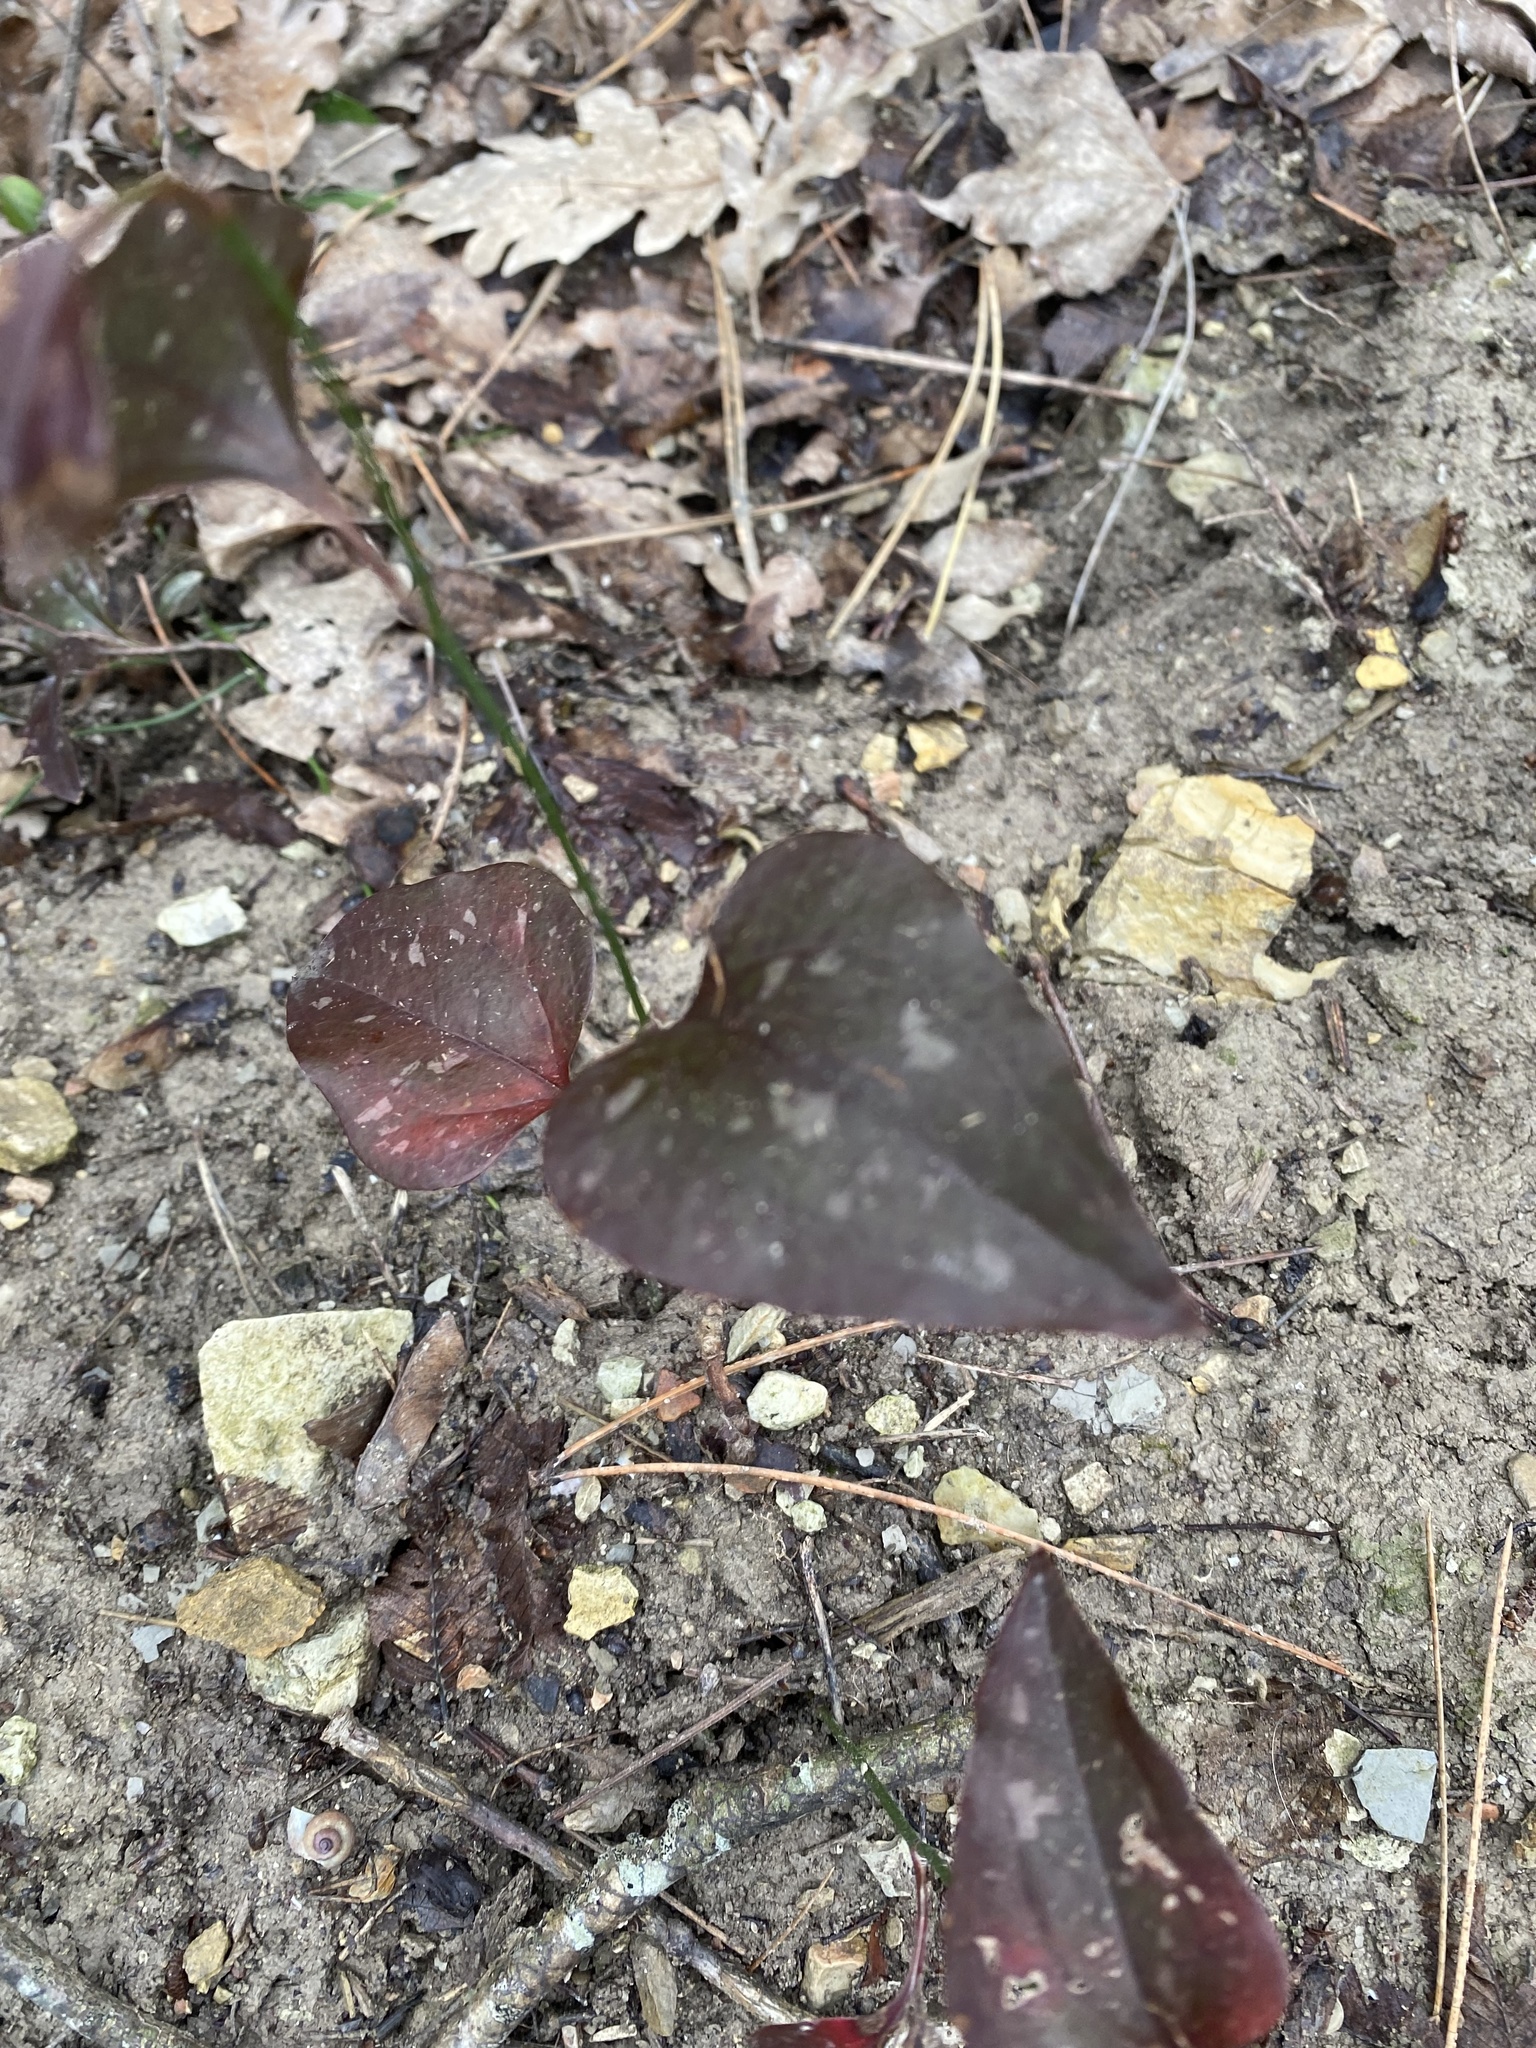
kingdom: Plantae
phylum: Tracheophyta
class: Liliopsida
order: Liliales
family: Smilacaceae
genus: Smilax
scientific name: Smilax excelsa
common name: Larger smilax
